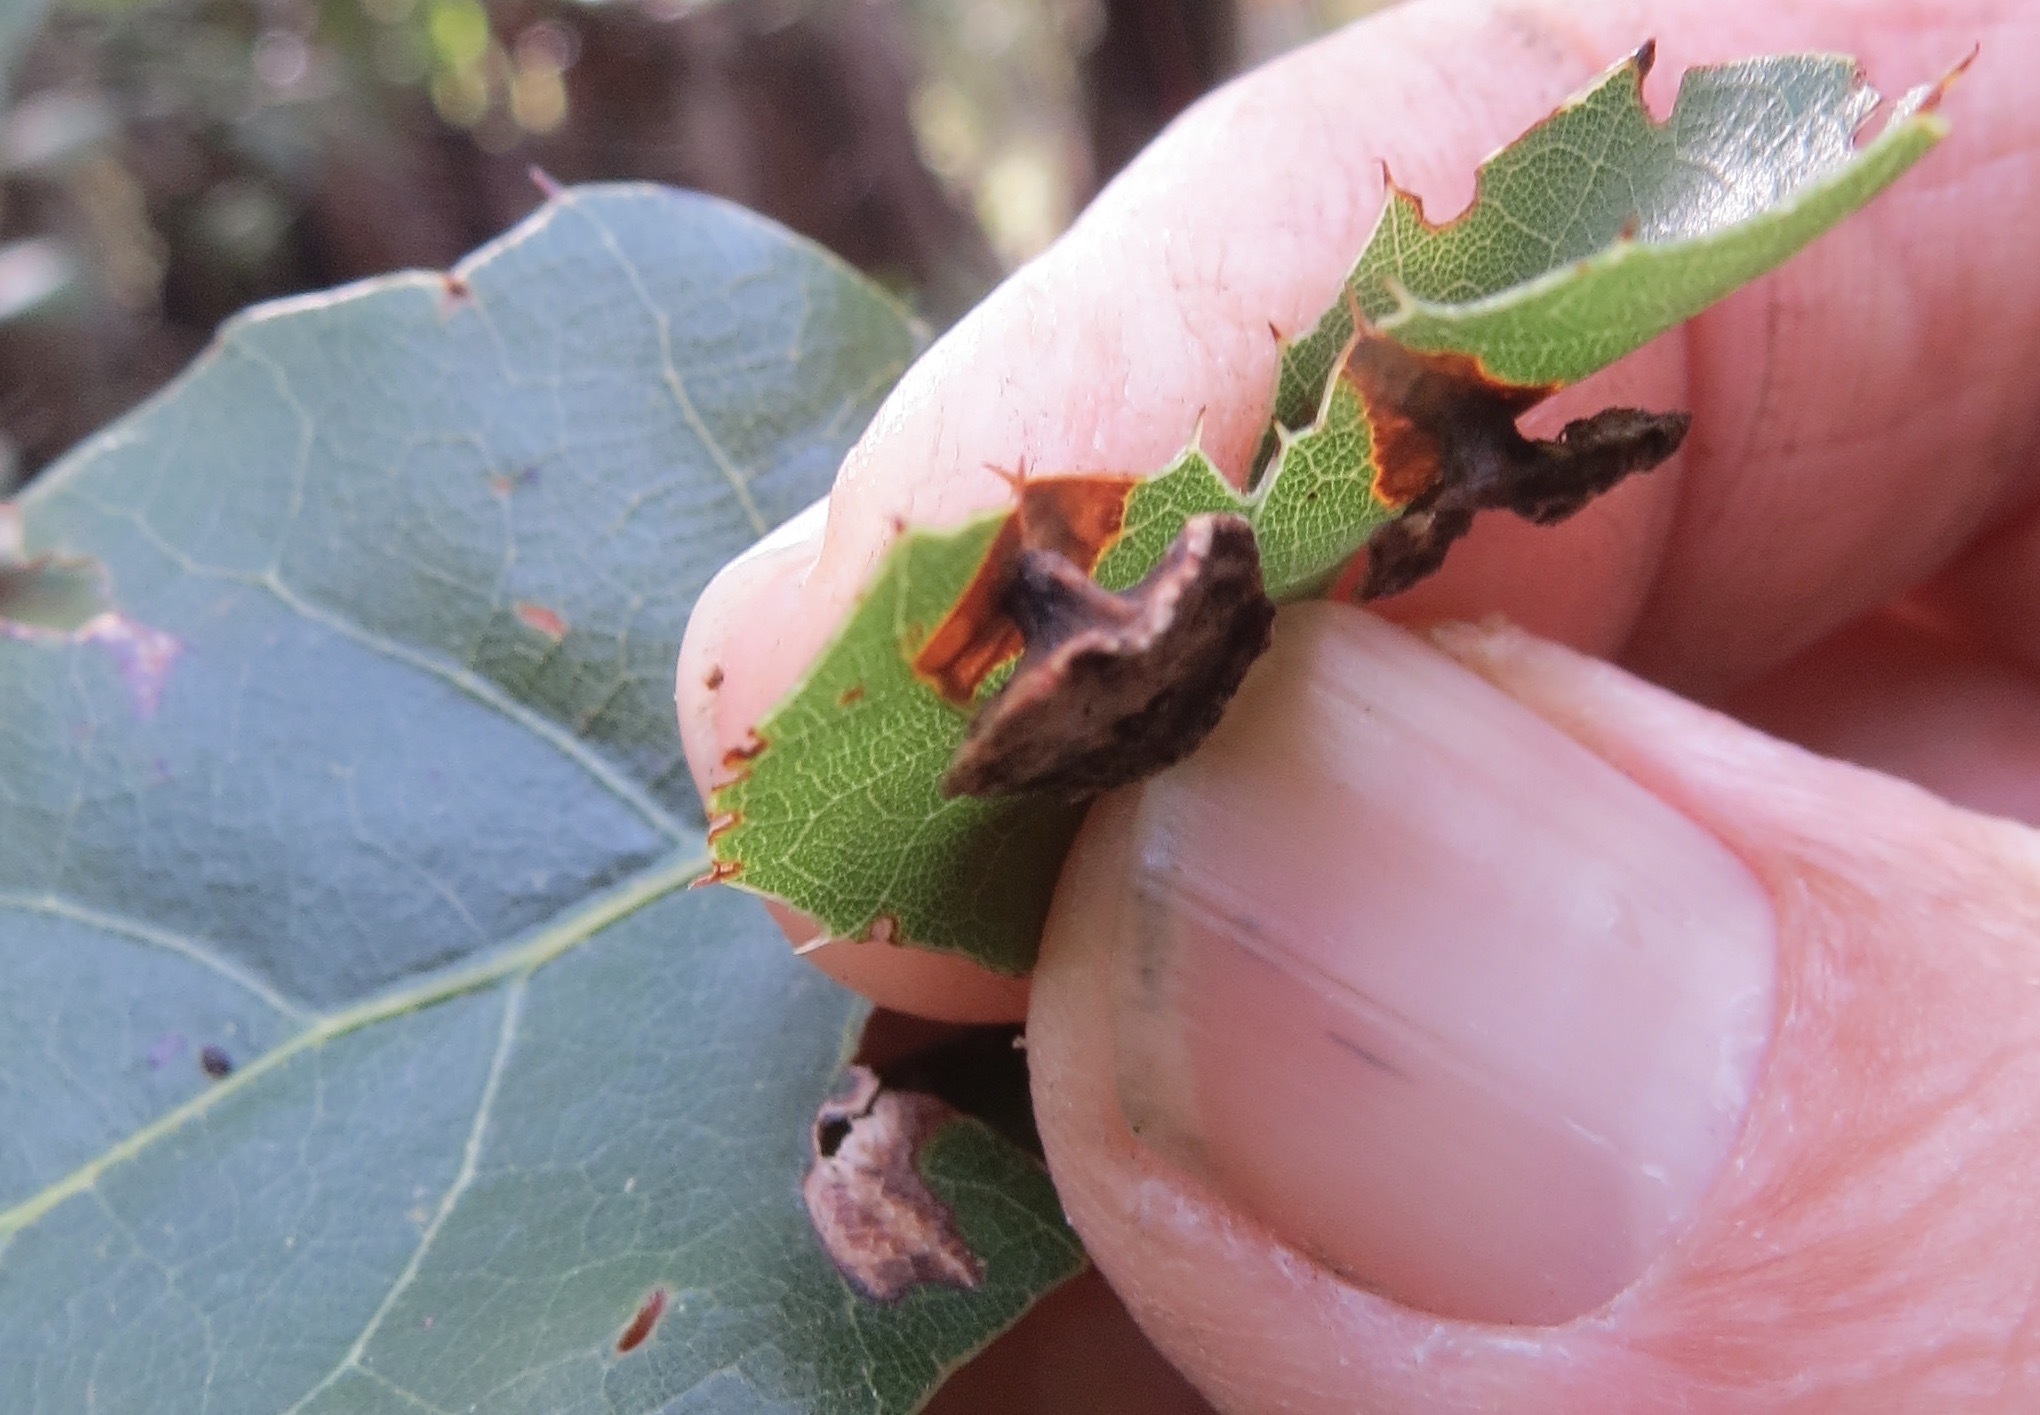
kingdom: Animalia
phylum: Arthropoda
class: Insecta
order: Hymenoptera
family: Cynipidae
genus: Amphibolips
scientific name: Amphibolips quercuspomiformis
